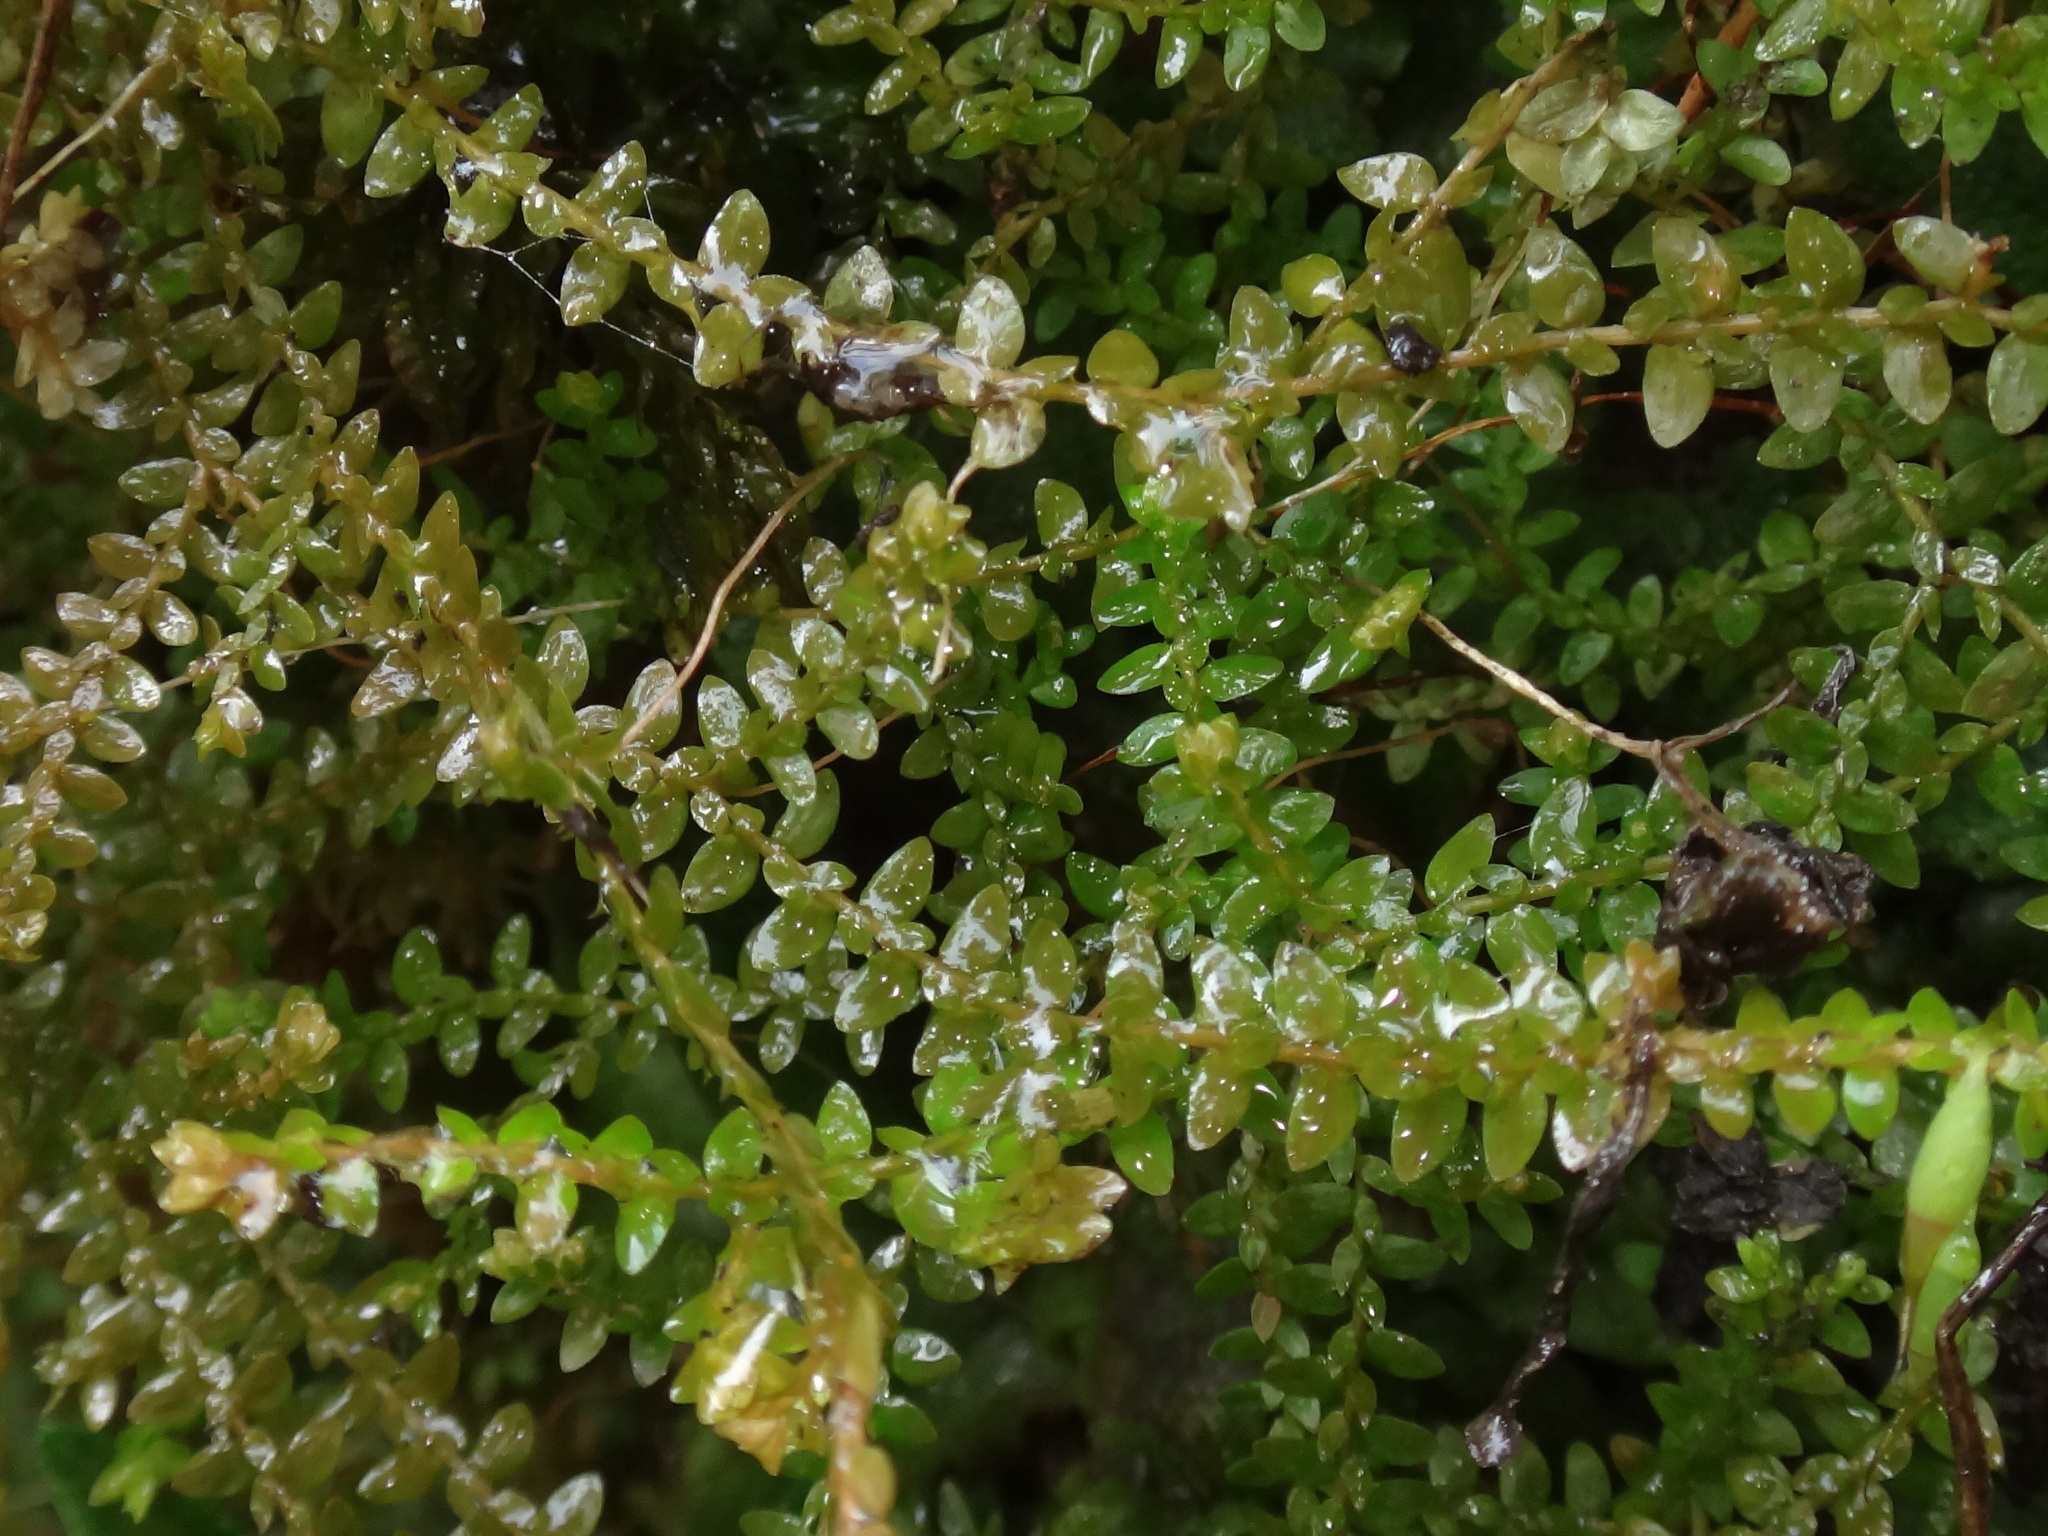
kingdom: Plantae
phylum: Tracheophyta
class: Lycopodiopsida
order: Selaginellales
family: Selaginellaceae
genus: Selaginella
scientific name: Selaginella helvetica
